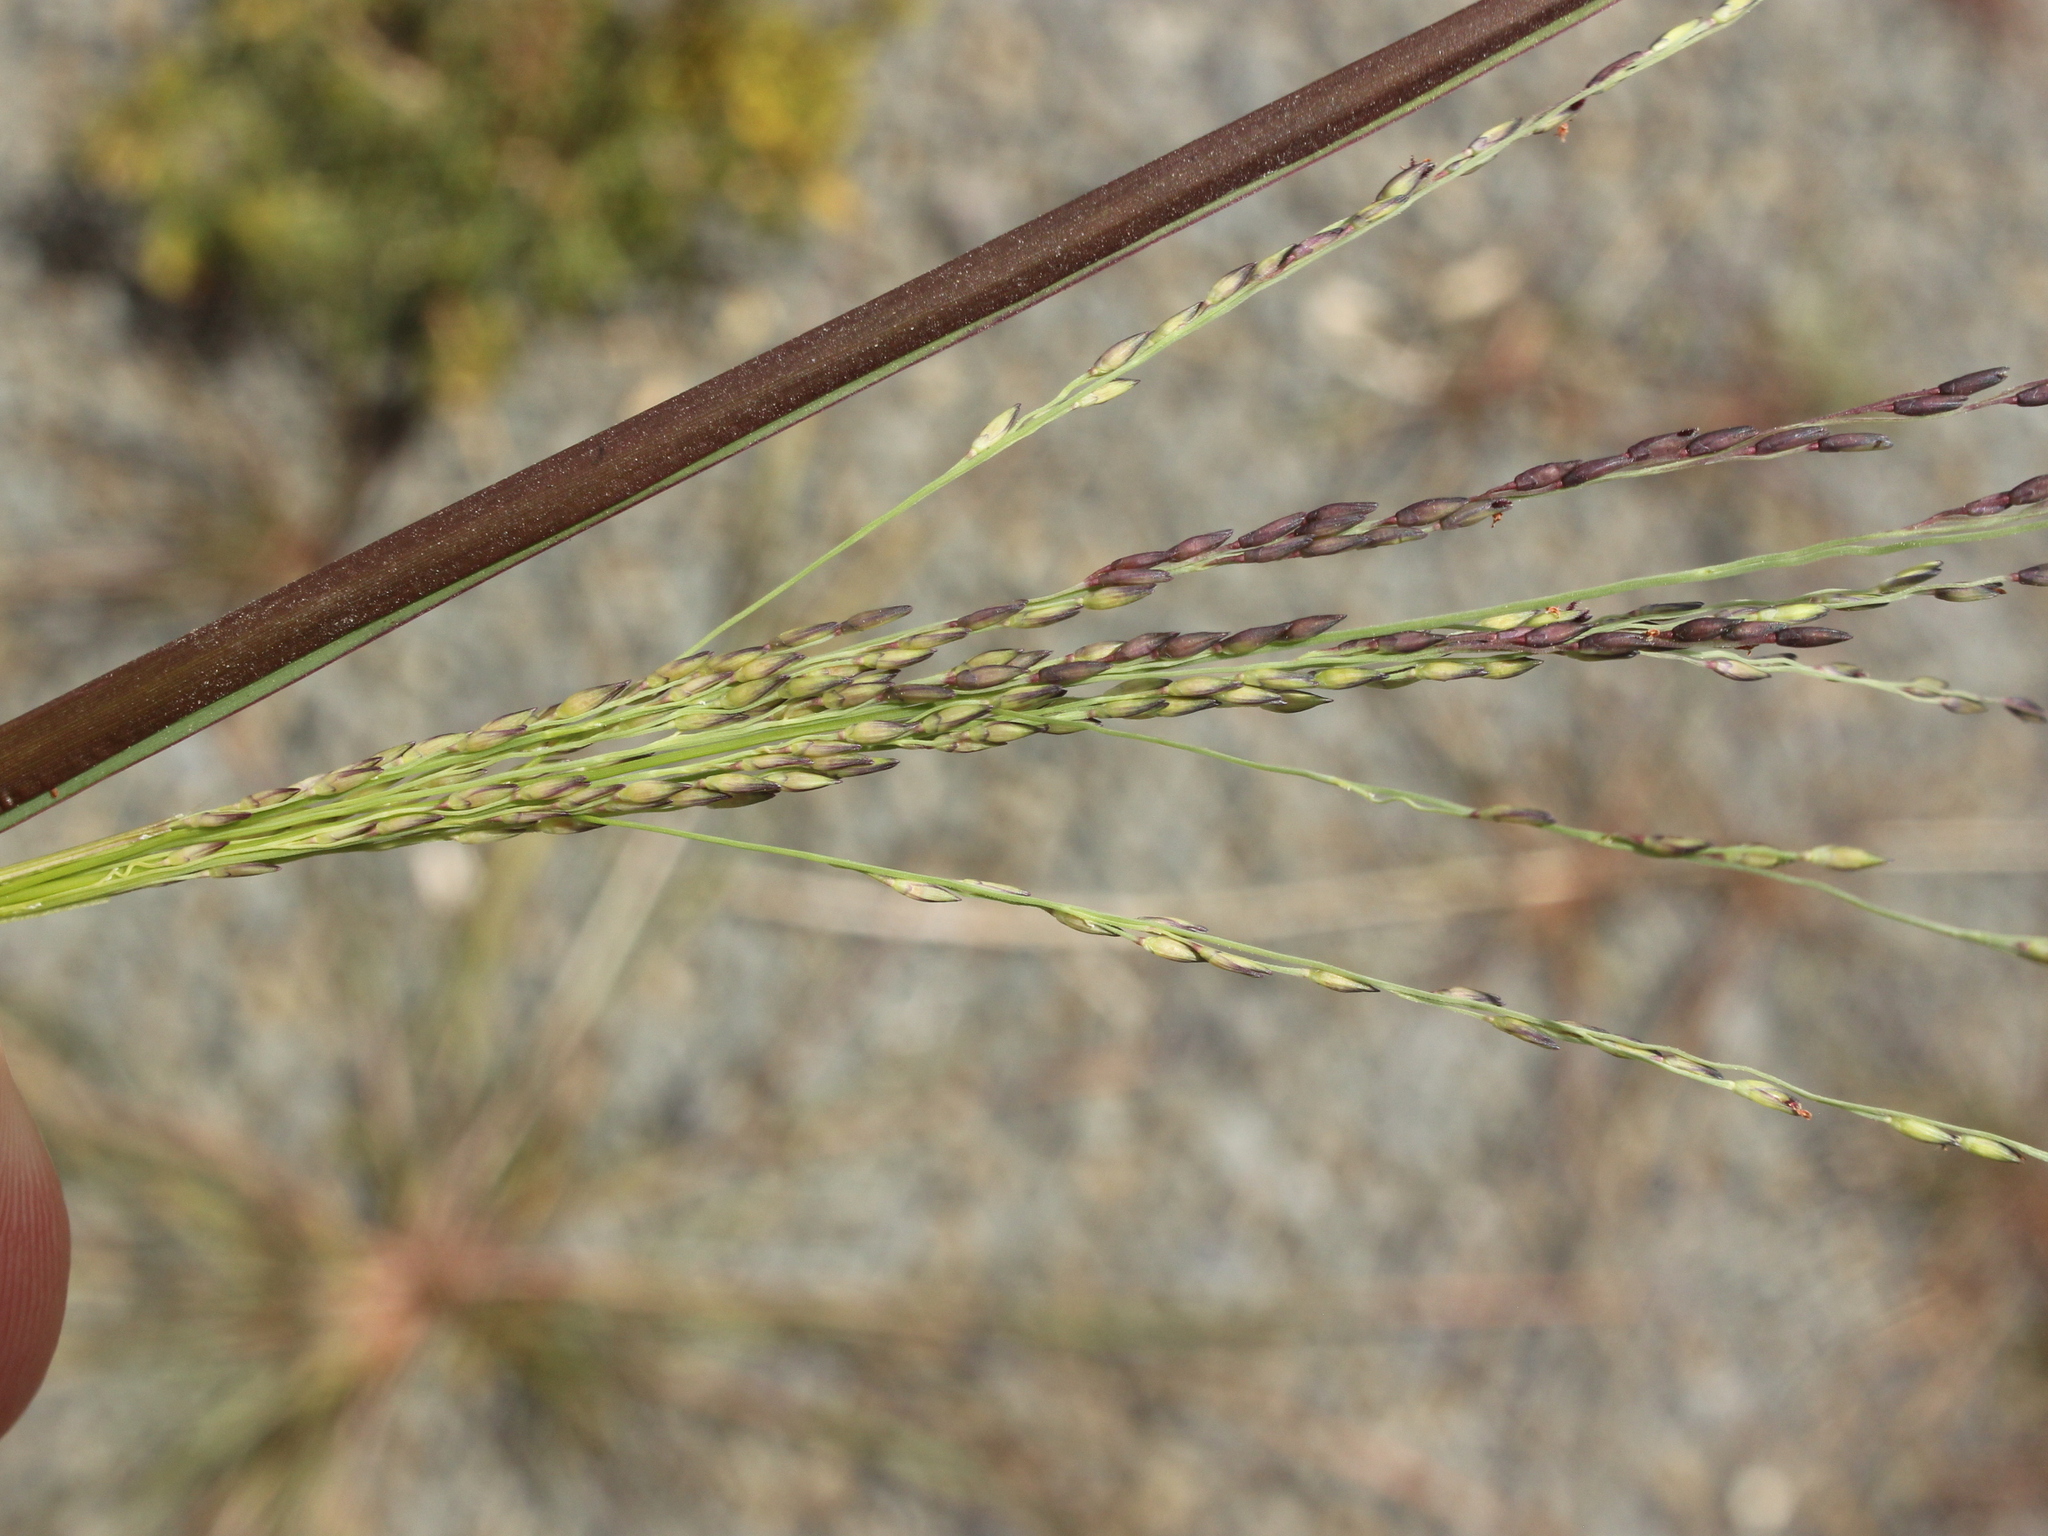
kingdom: Plantae
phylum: Tracheophyta
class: Liliopsida
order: Poales
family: Poaceae
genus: Panicum
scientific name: Panicum dichotomiflorum
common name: Autumn millet
